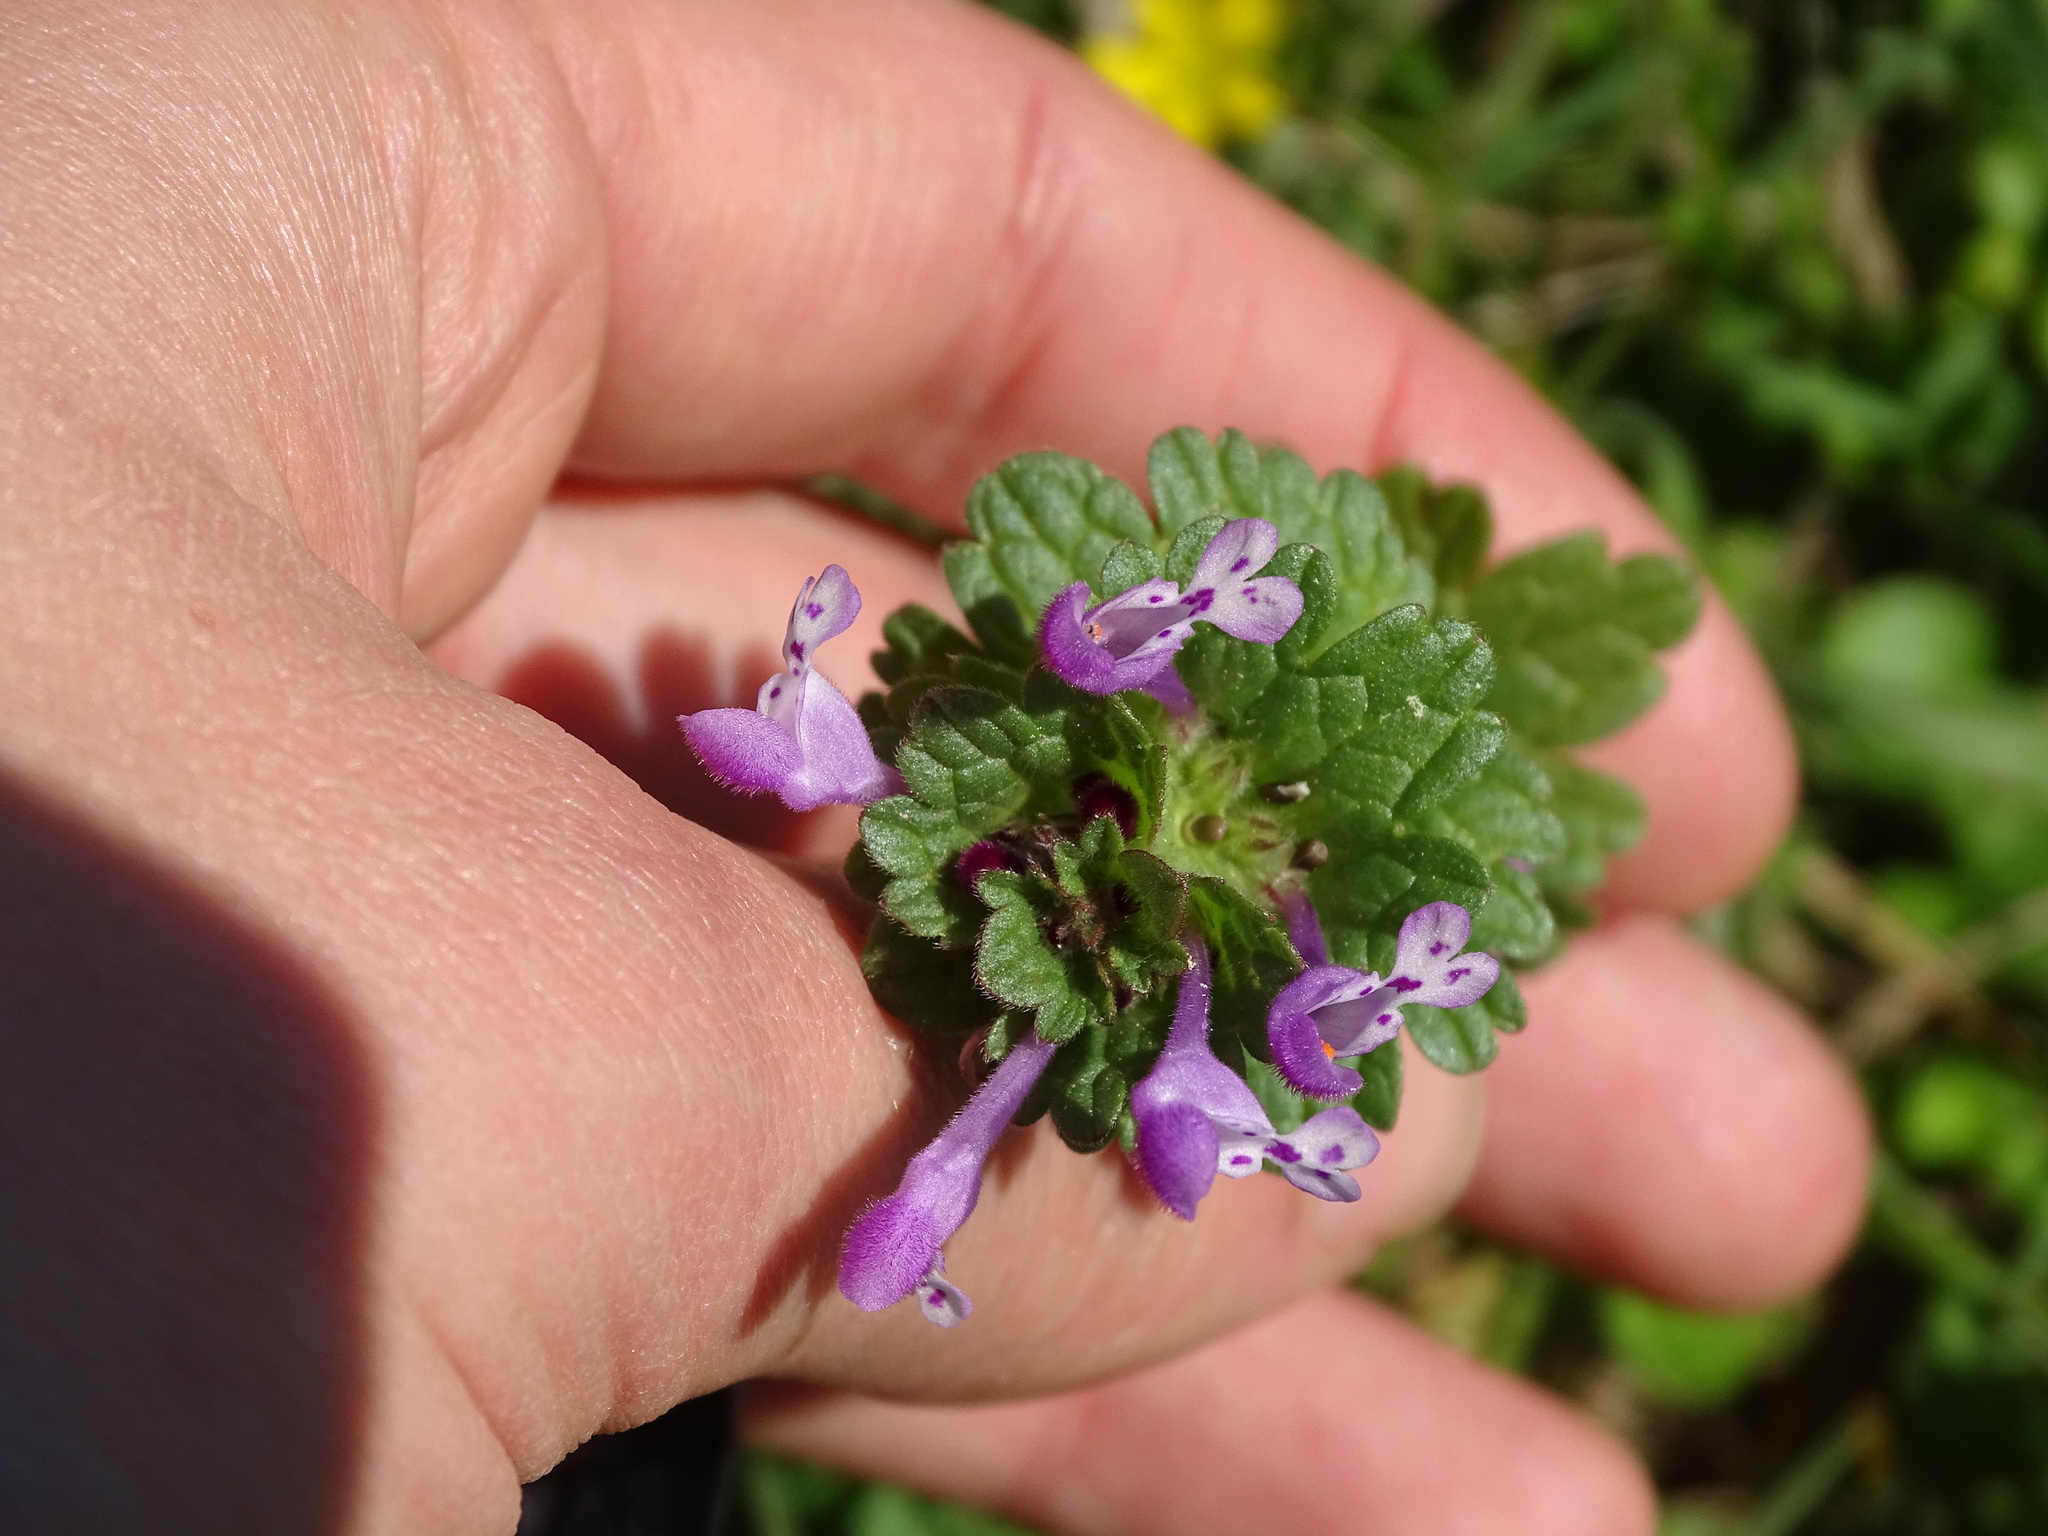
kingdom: Plantae
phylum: Tracheophyta
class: Magnoliopsida
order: Lamiales
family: Lamiaceae
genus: Lamium
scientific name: Lamium amplexicaule
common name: Henbit dead-nettle
